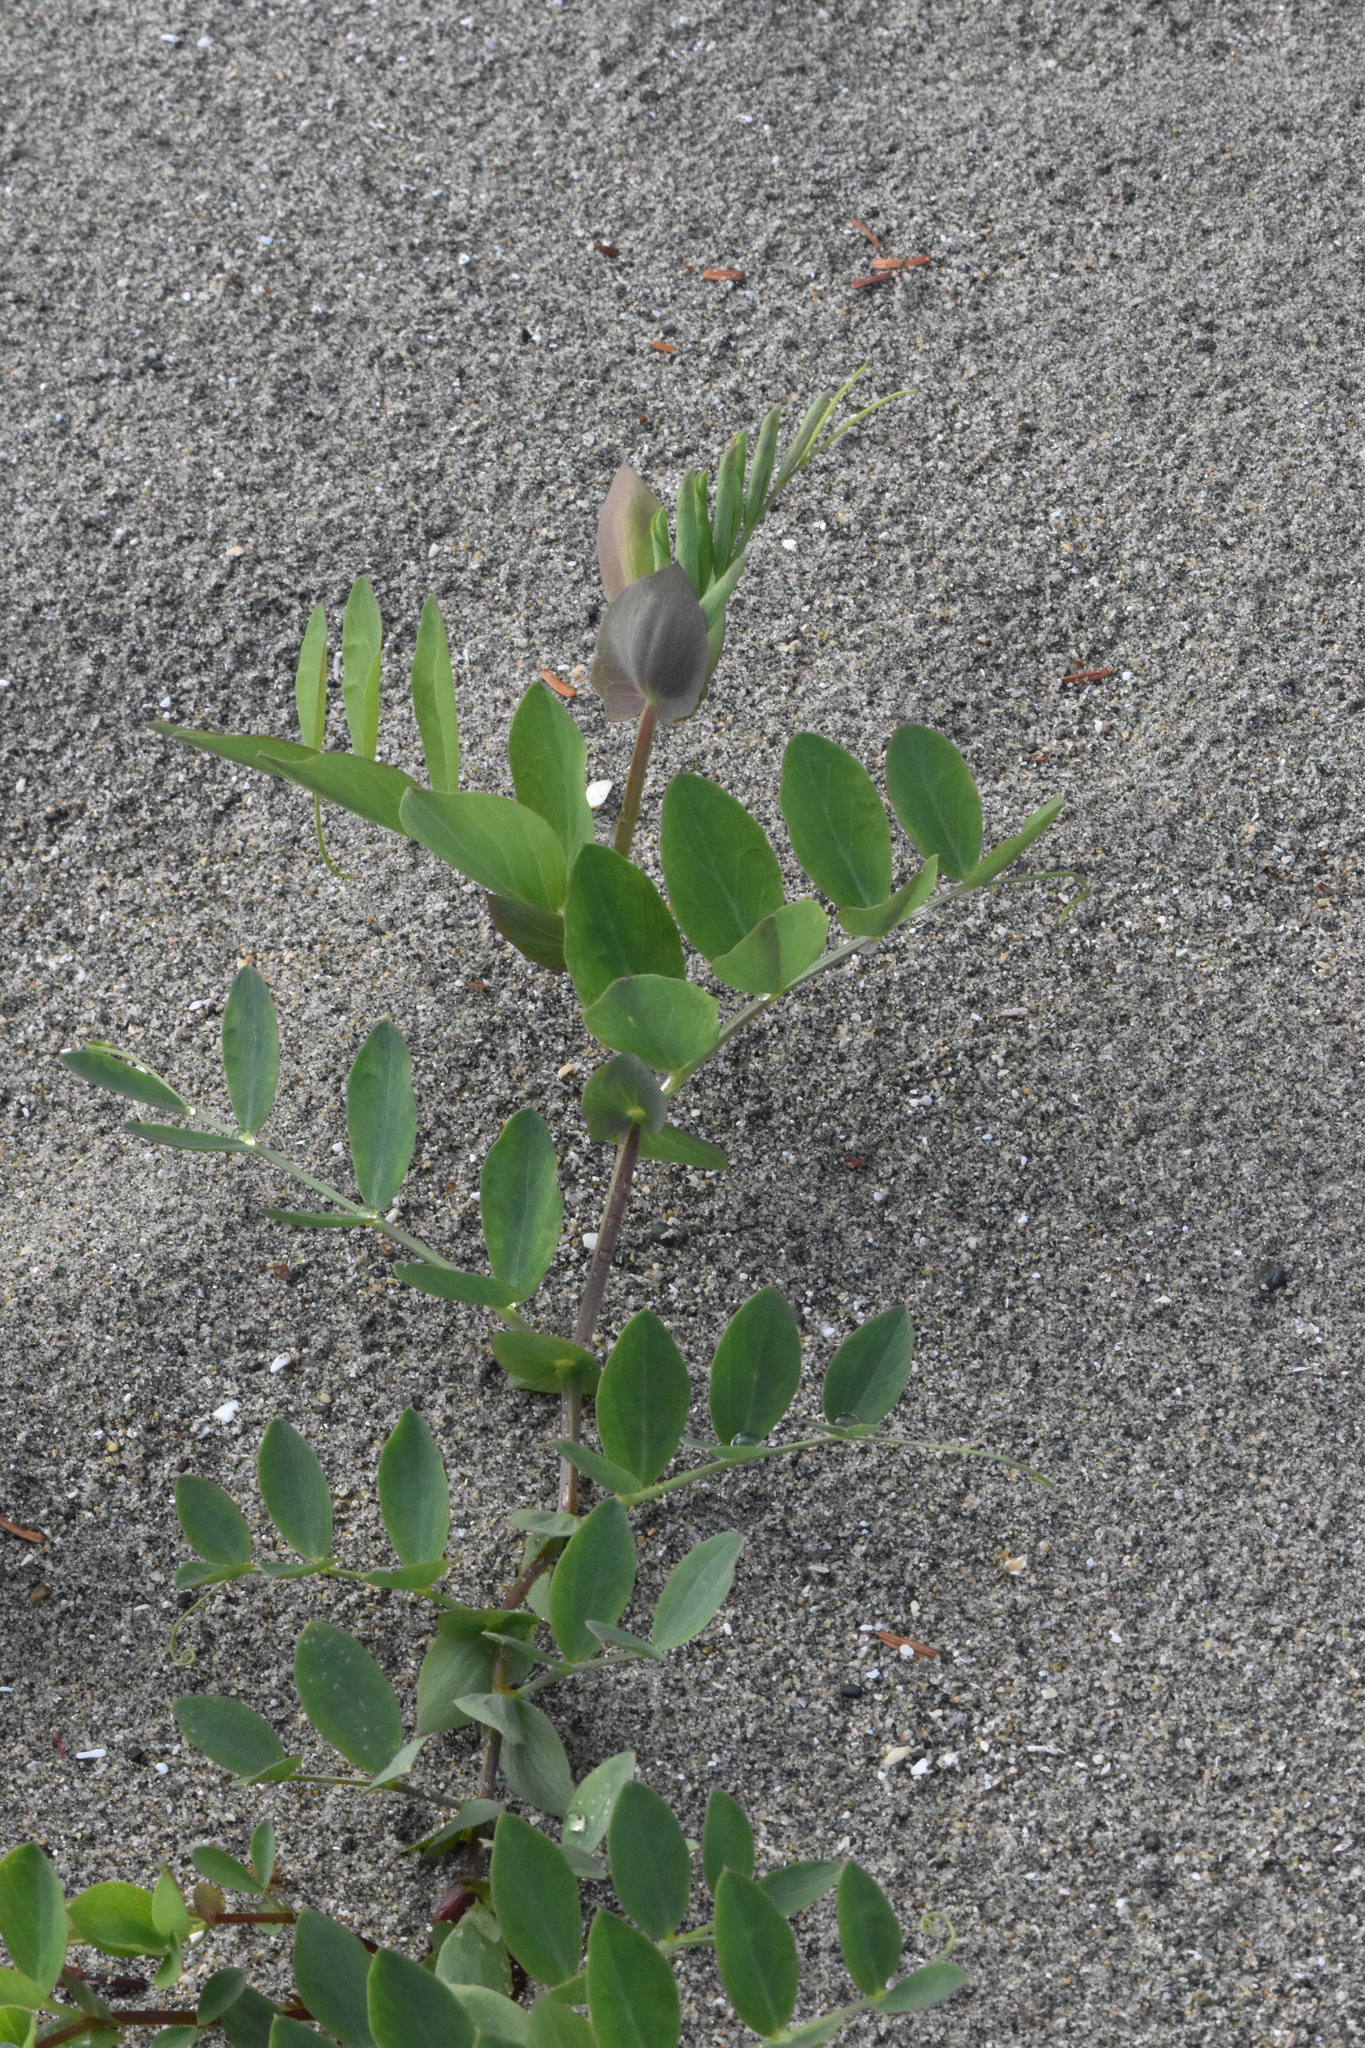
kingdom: Plantae
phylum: Tracheophyta
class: Magnoliopsida
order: Fabales
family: Fabaceae
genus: Lathyrus
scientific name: Lathyrus japonicus
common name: Sea pea
